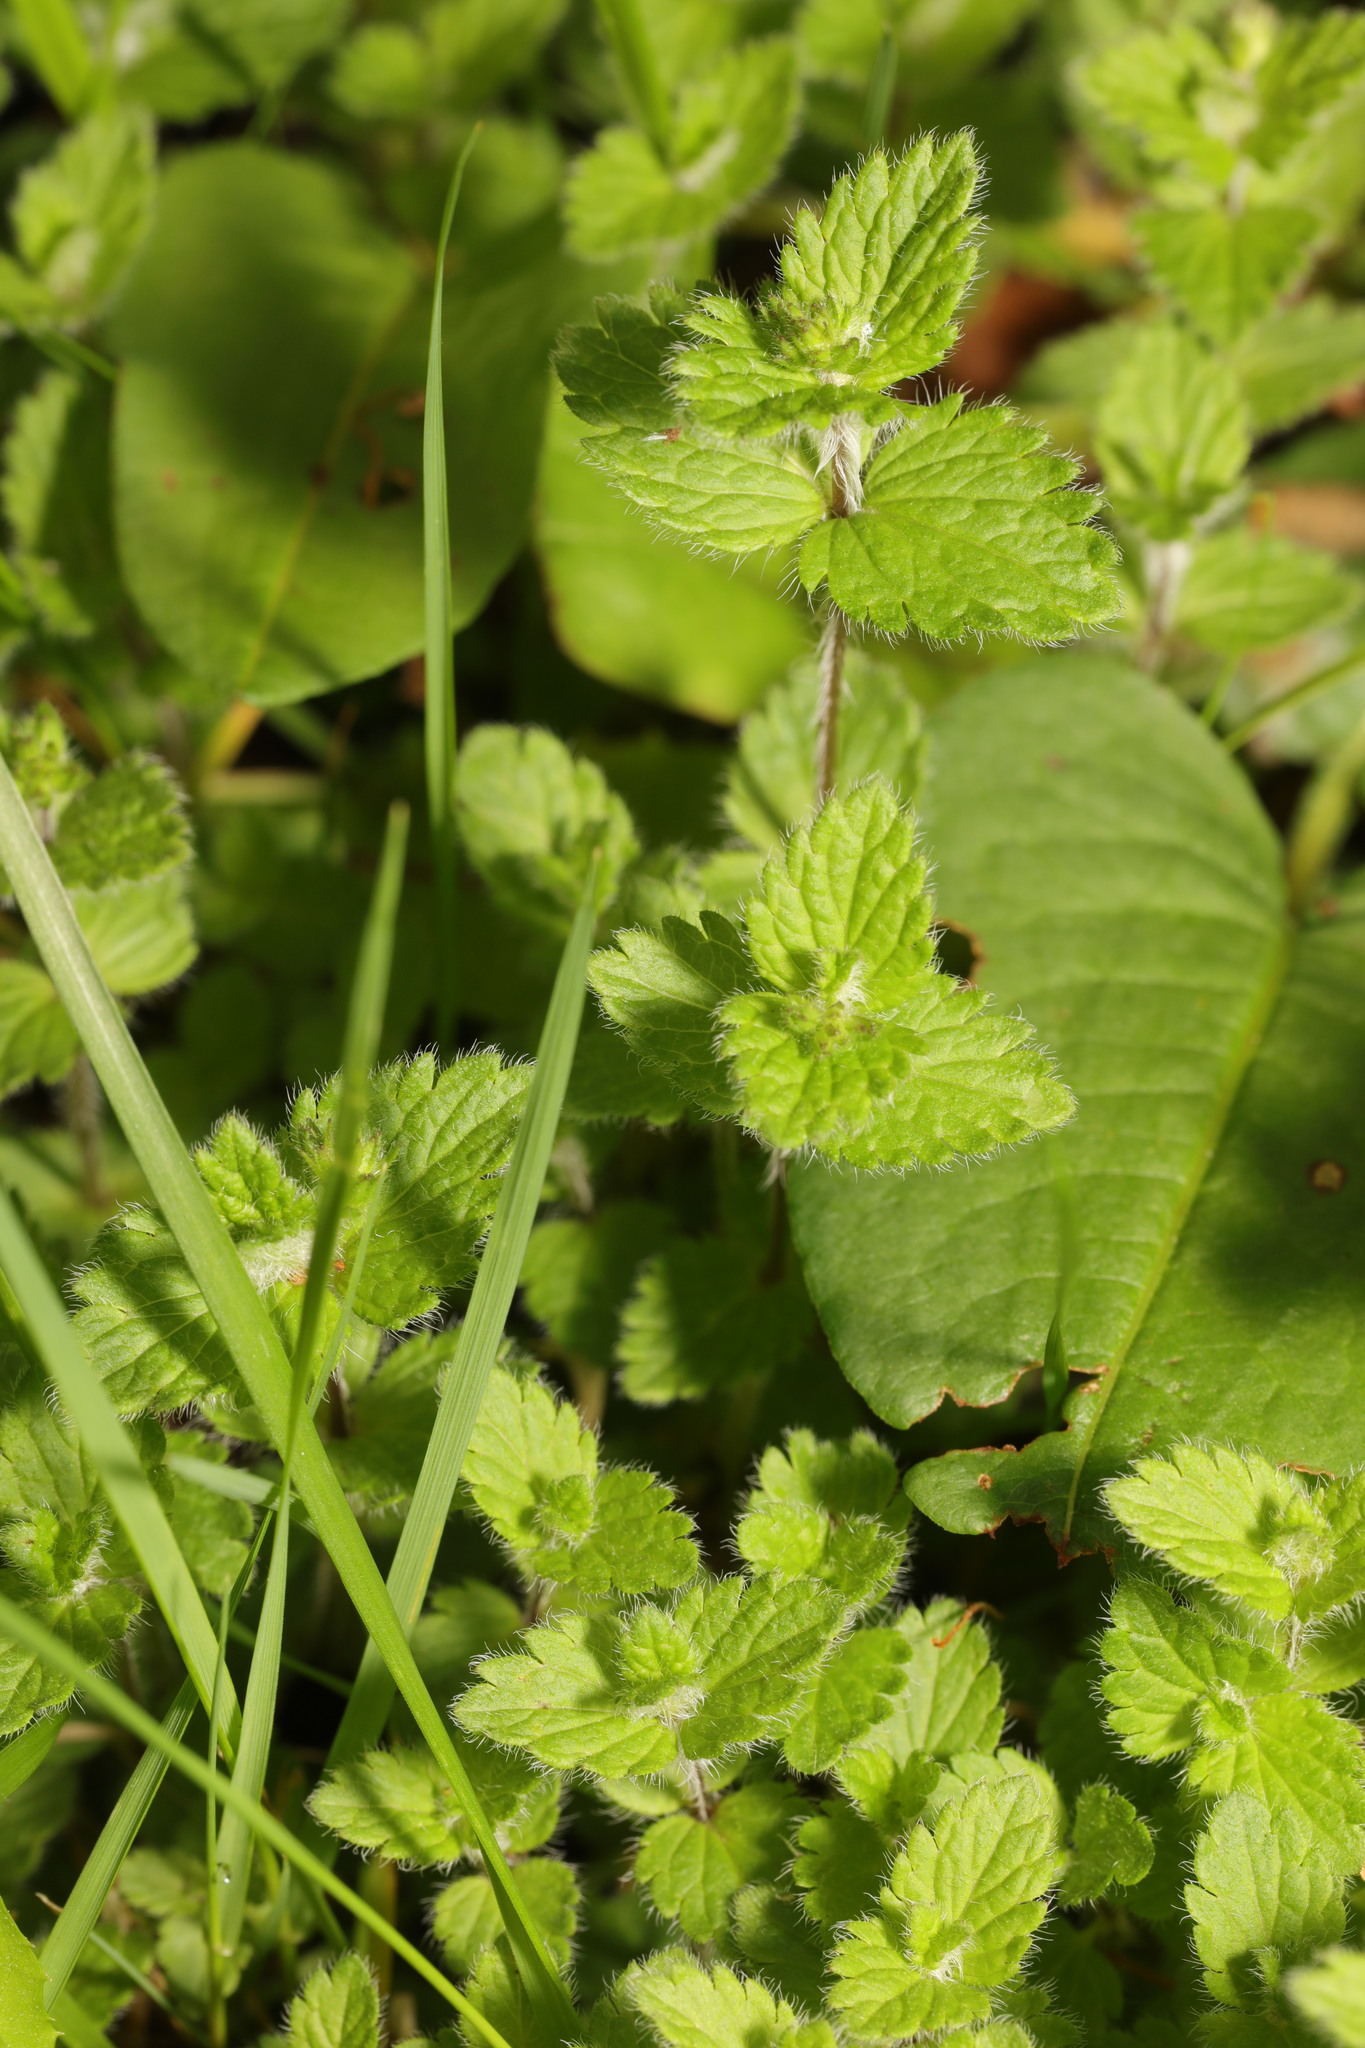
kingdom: Plantae
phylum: Tracheophyta
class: Magnoliopsida
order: Lamiales
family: Plantaginaceae
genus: Veronica
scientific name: Veronica chamaedrys
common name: Germander speedwell
